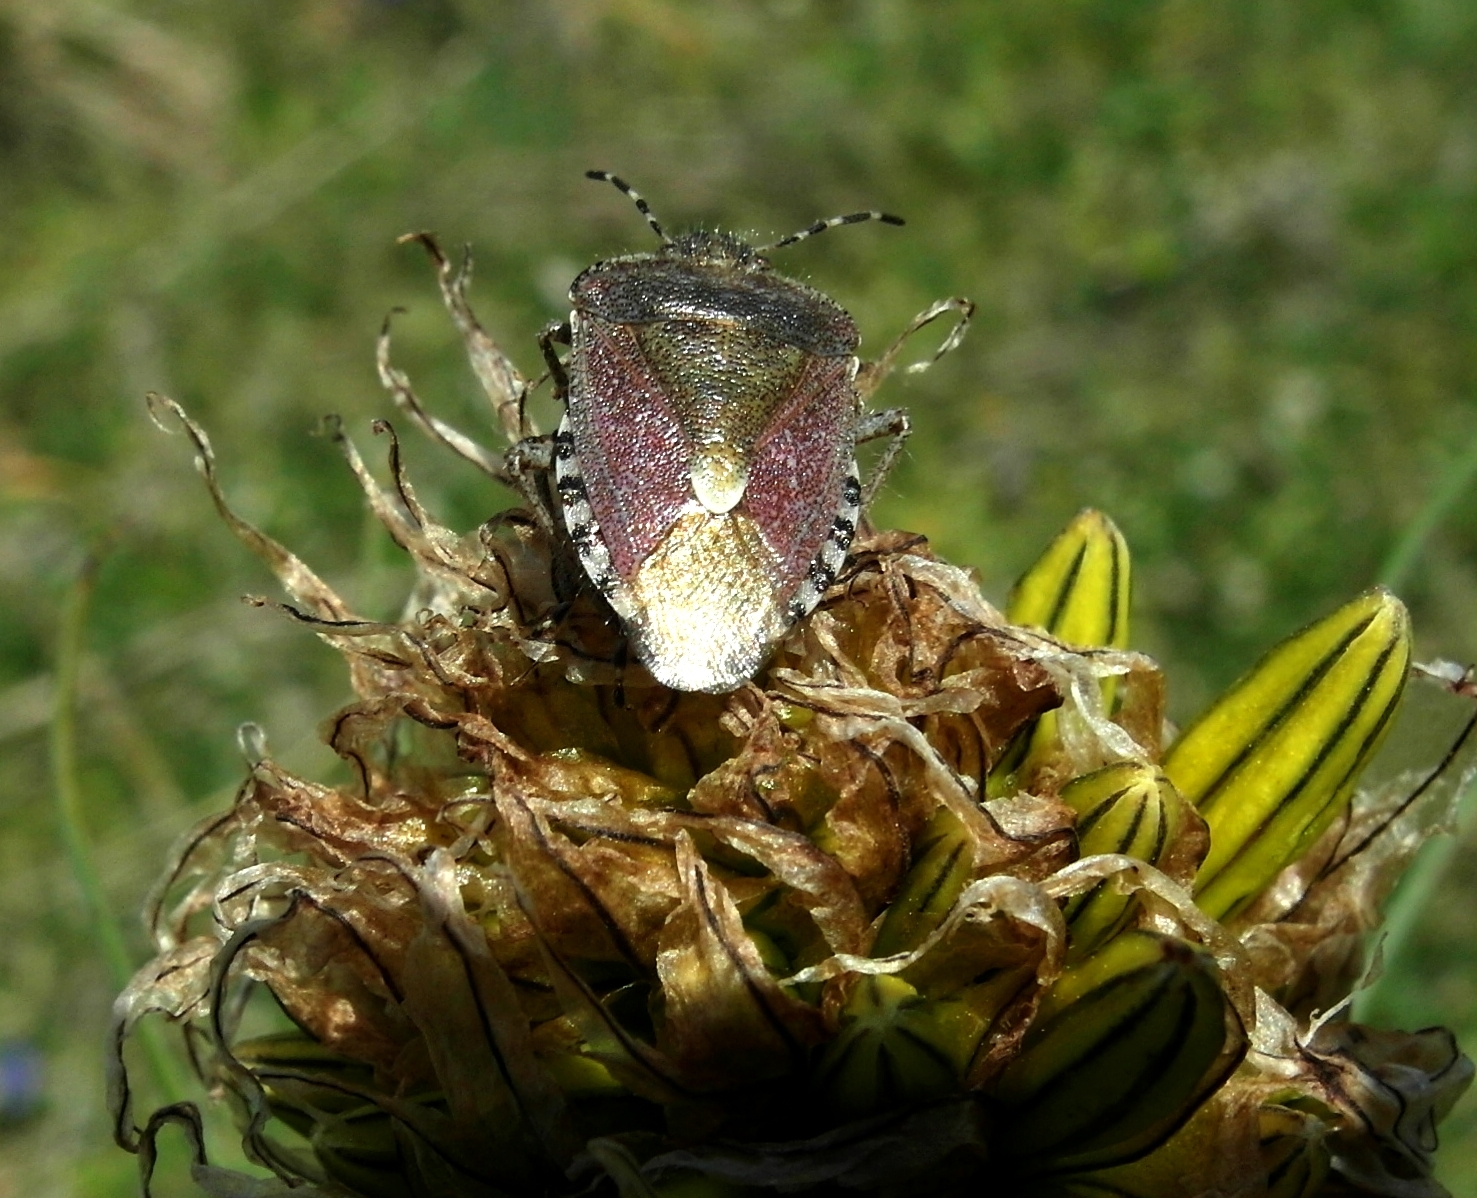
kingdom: Animalia
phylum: Arthropoda
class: Insecta
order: Hemiptera
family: Pentatomidae
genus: Dolycoris
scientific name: Dolycoris baccarum
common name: Sloe bug
